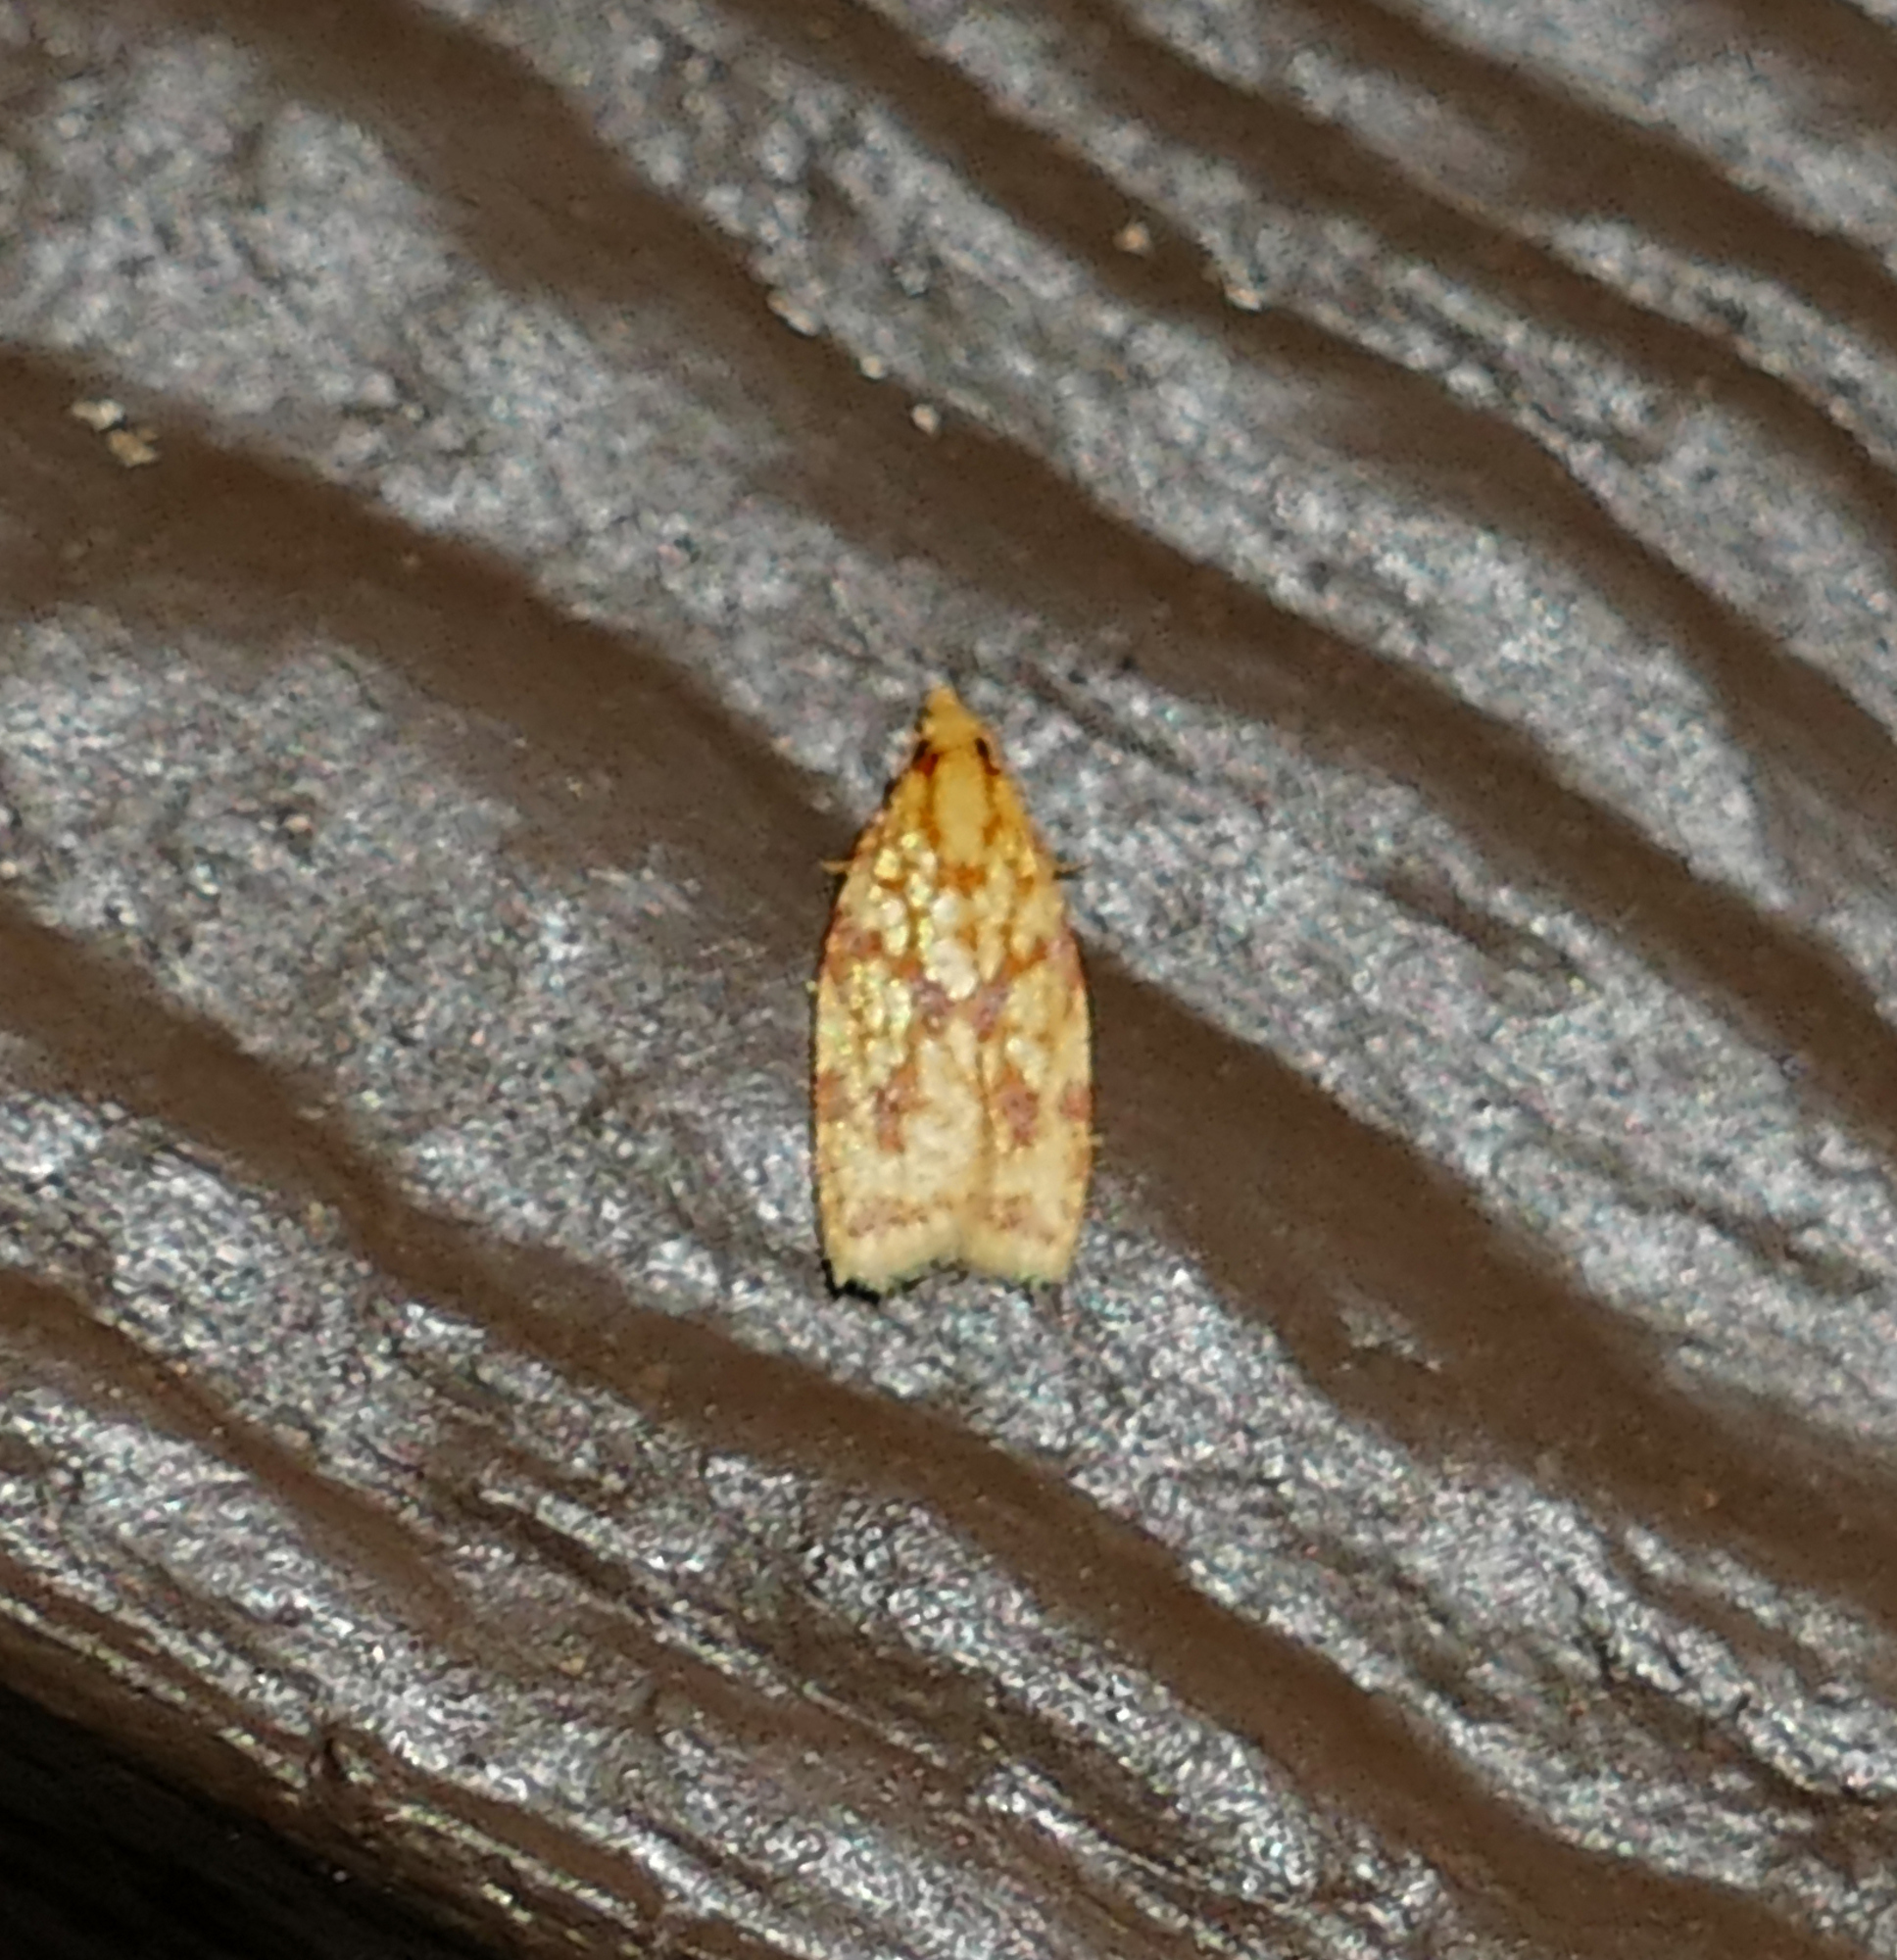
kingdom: Animalia
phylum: Arthropoda
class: Insecta
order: Lepidoptera
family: Tortricidae
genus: Sparganothis
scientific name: Sparganothis sulfureana
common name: Sparganothis fruitworm moth
